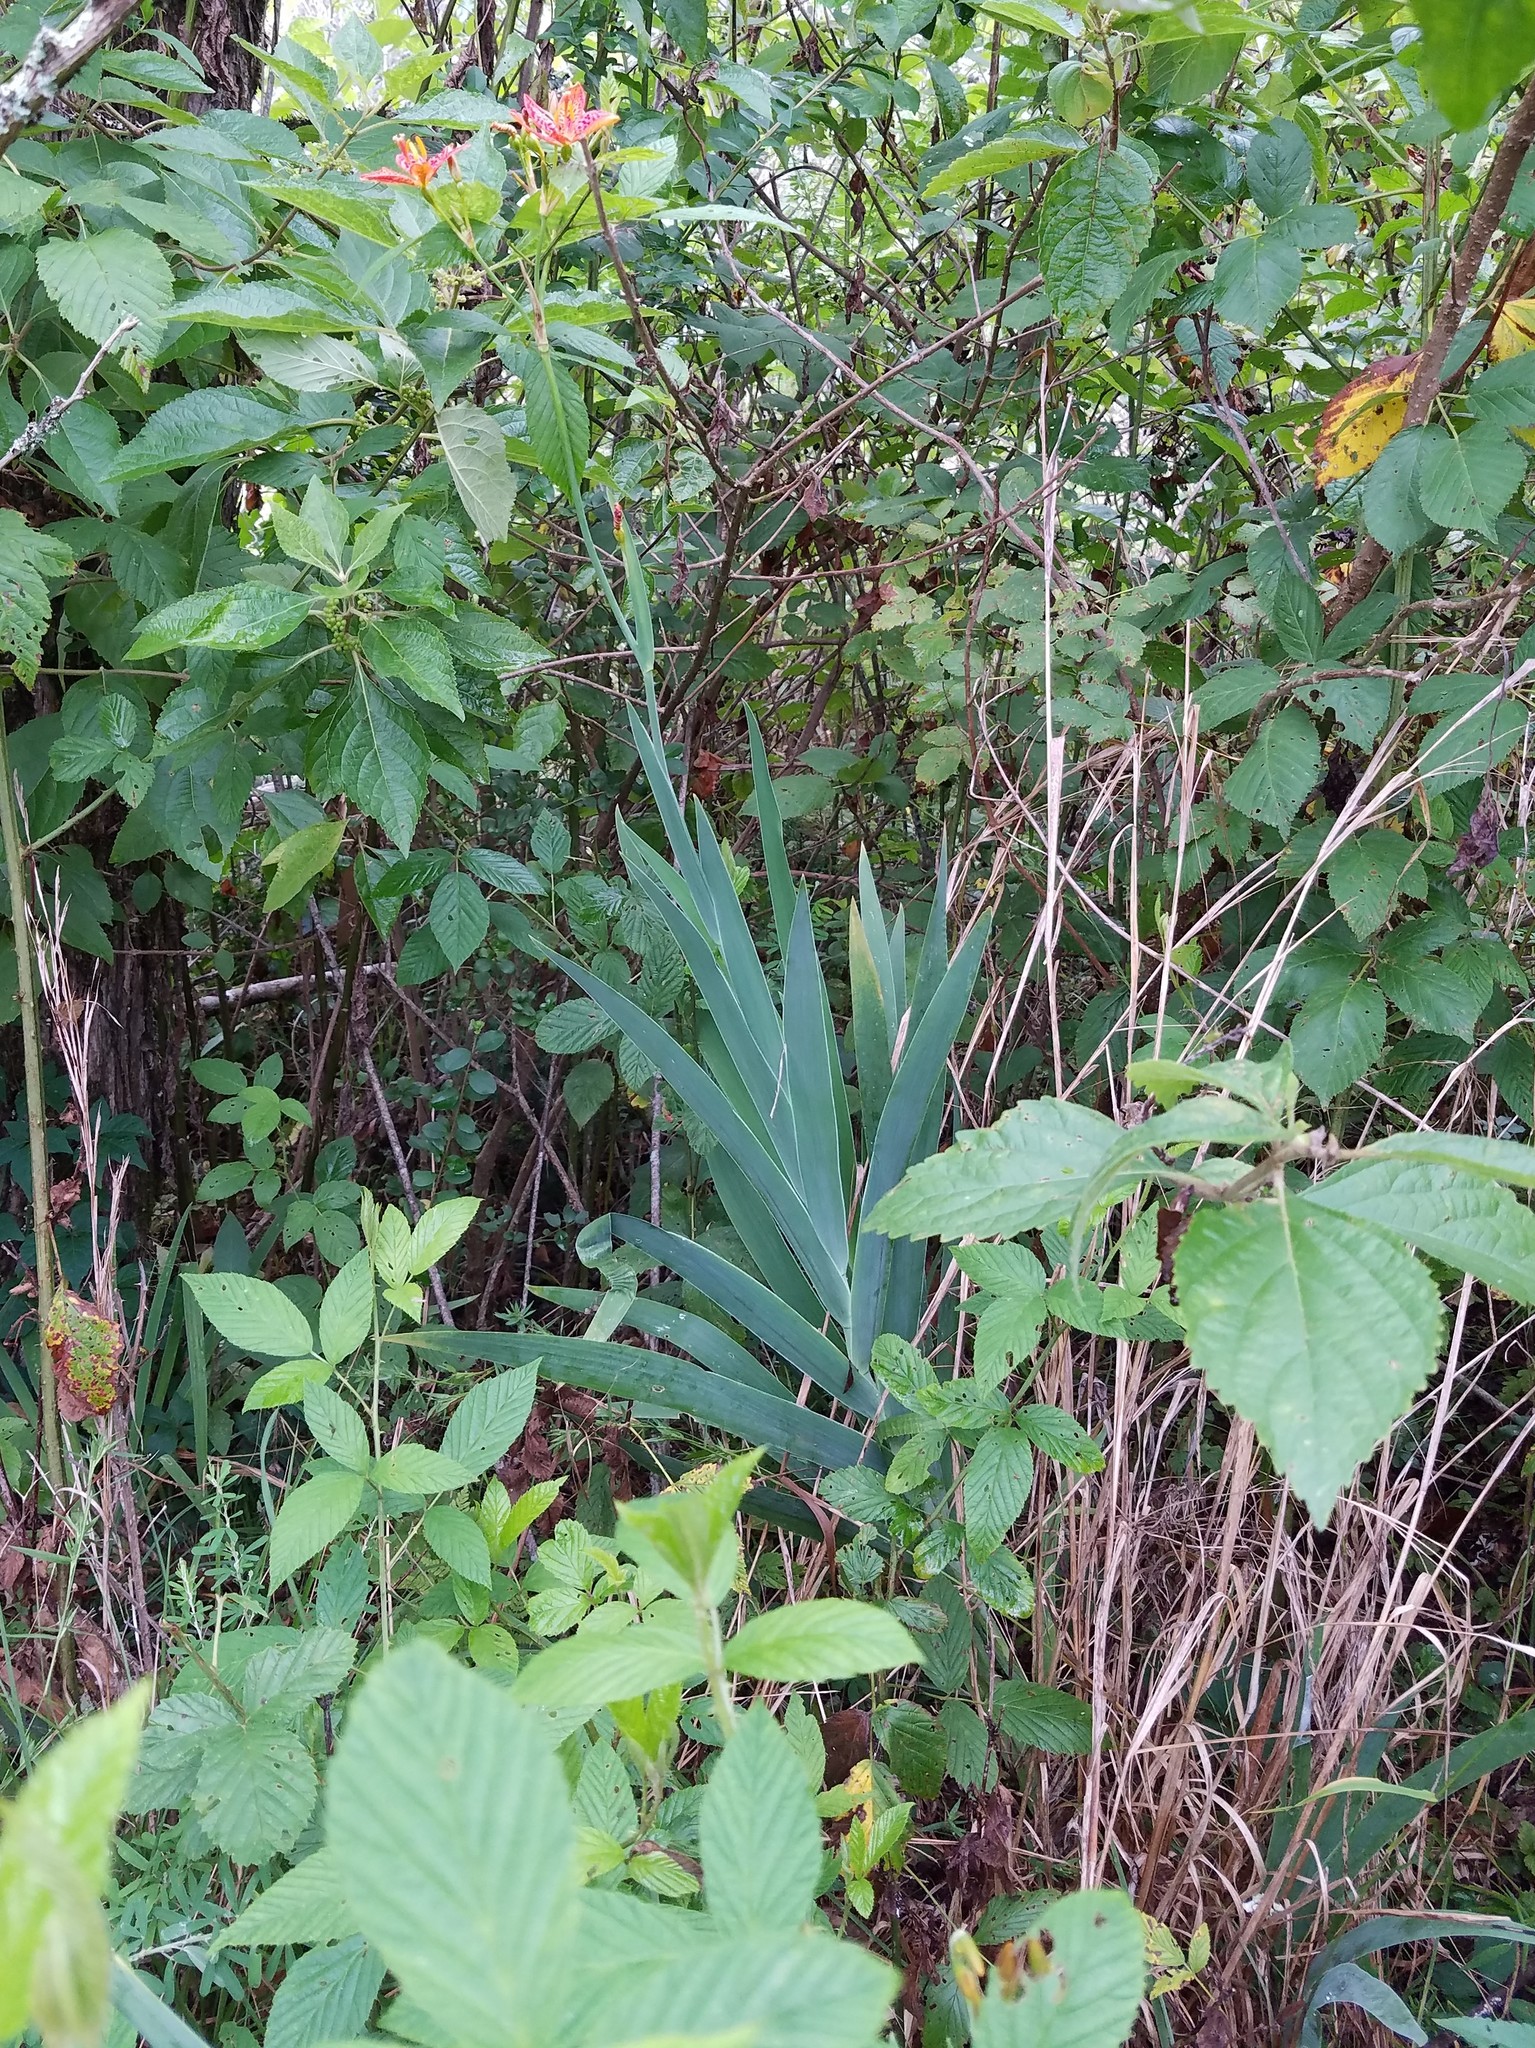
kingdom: Plantae
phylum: Tracheophyta
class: Liliopsida
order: Asparagales
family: Iridaceae
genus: Iris
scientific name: Iris domestica
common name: Belamcanda
